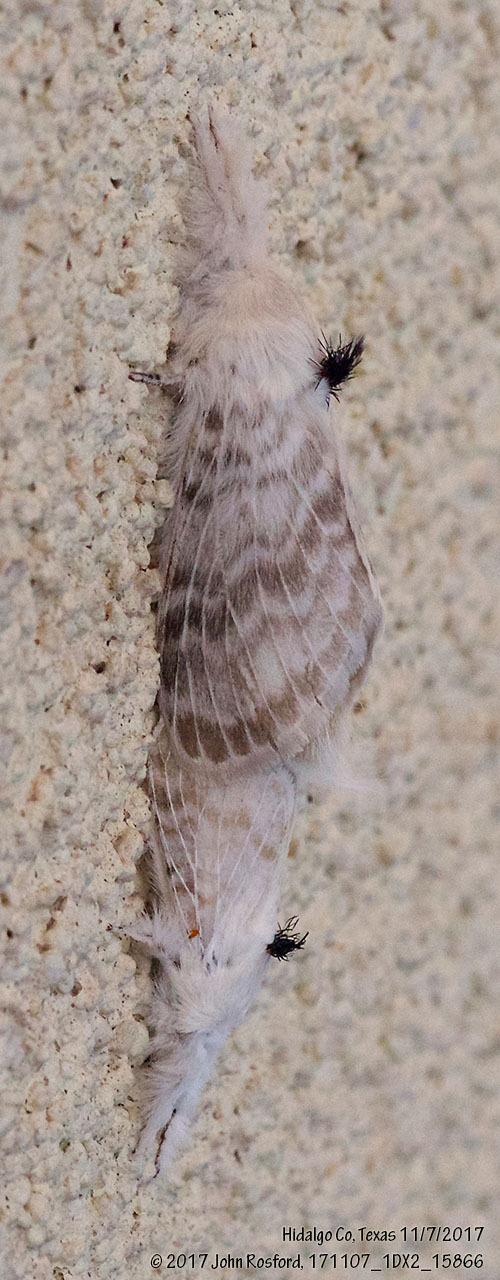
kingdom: Animalia
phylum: Arthropoda
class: Insecta
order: Lepidoptera
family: Lasiocampidae
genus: Apotolype
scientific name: Apotolype blanchardi
